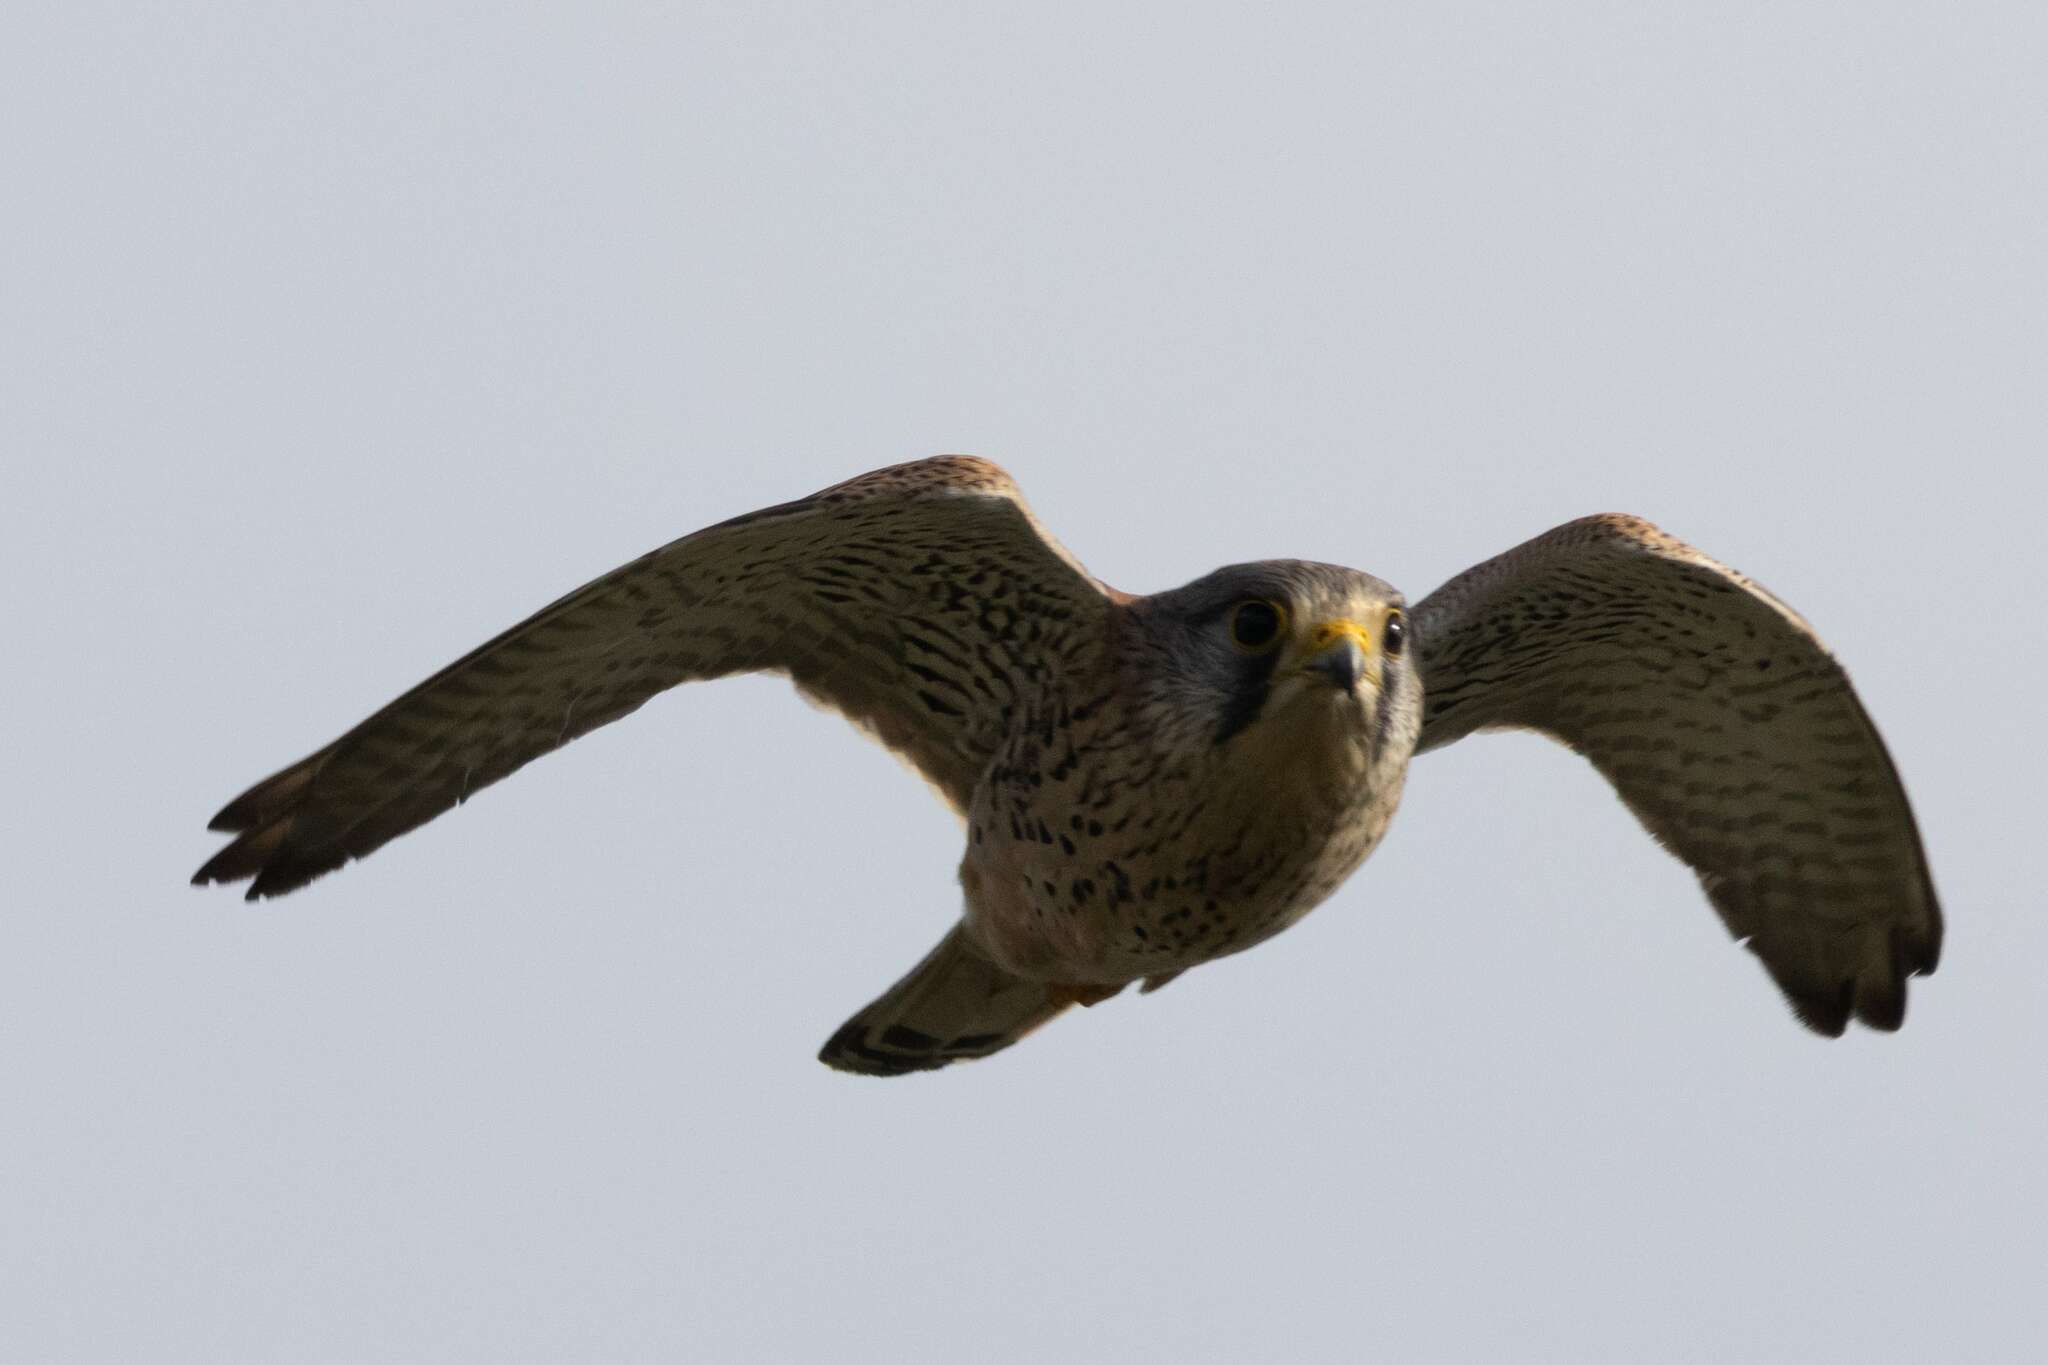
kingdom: Animalia
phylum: Chordata
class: Aves
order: Falconiformes
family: Falconidae
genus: Falco
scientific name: Falco tinnunculus
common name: Common kestrel
